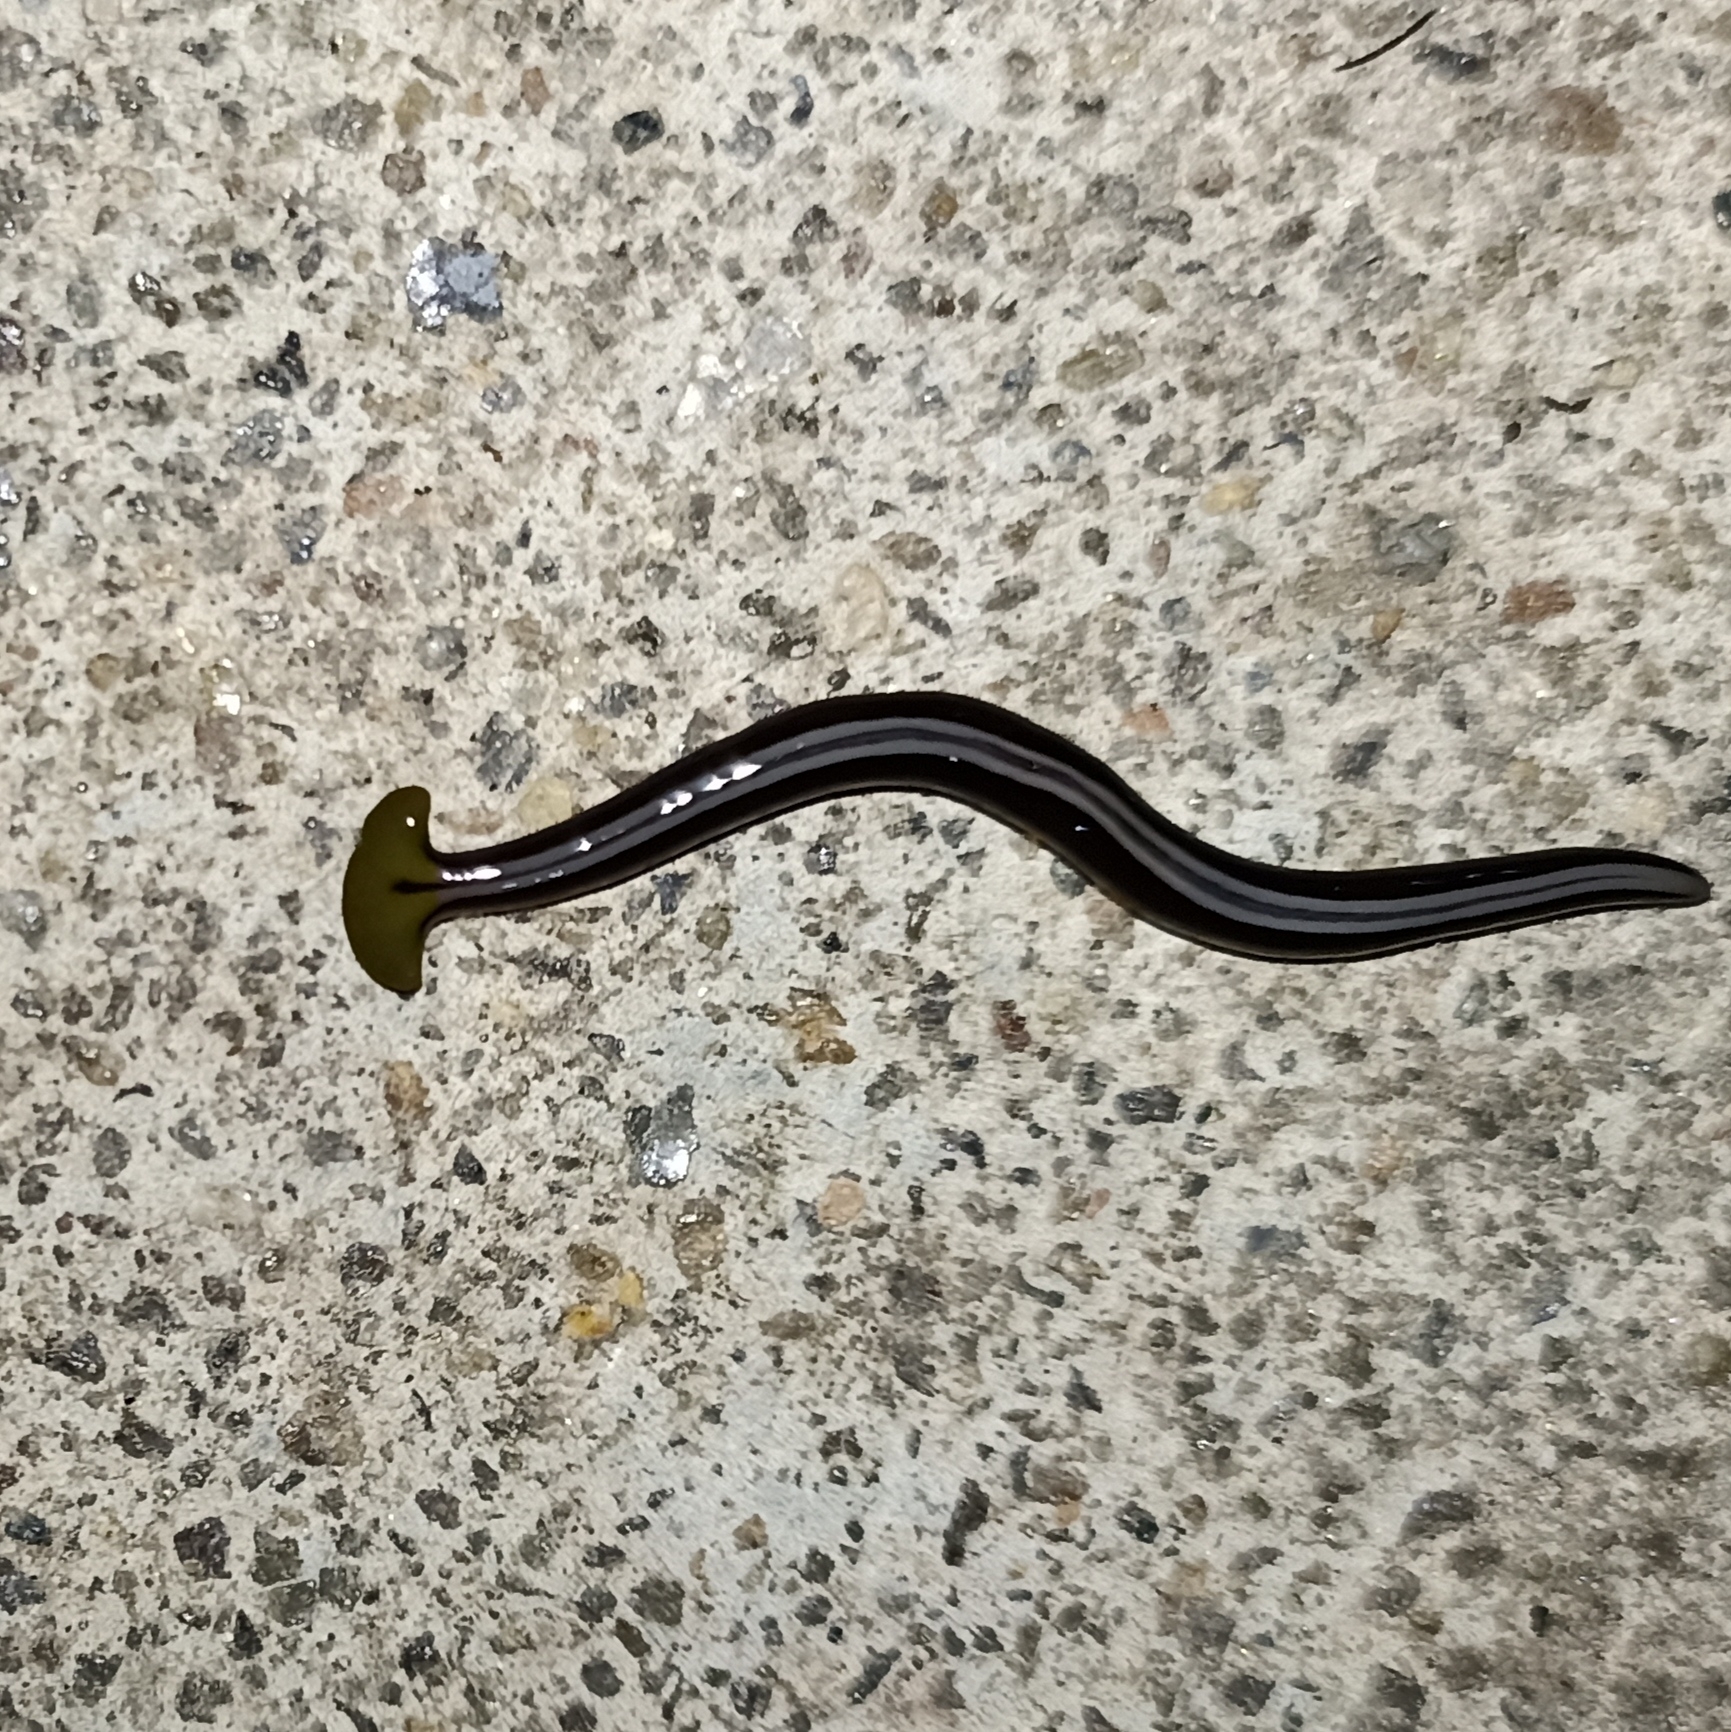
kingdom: Animalia
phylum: Platyhelminthes
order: Tricladida
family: Geoplanidae
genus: Humbertium
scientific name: Humbertium core
